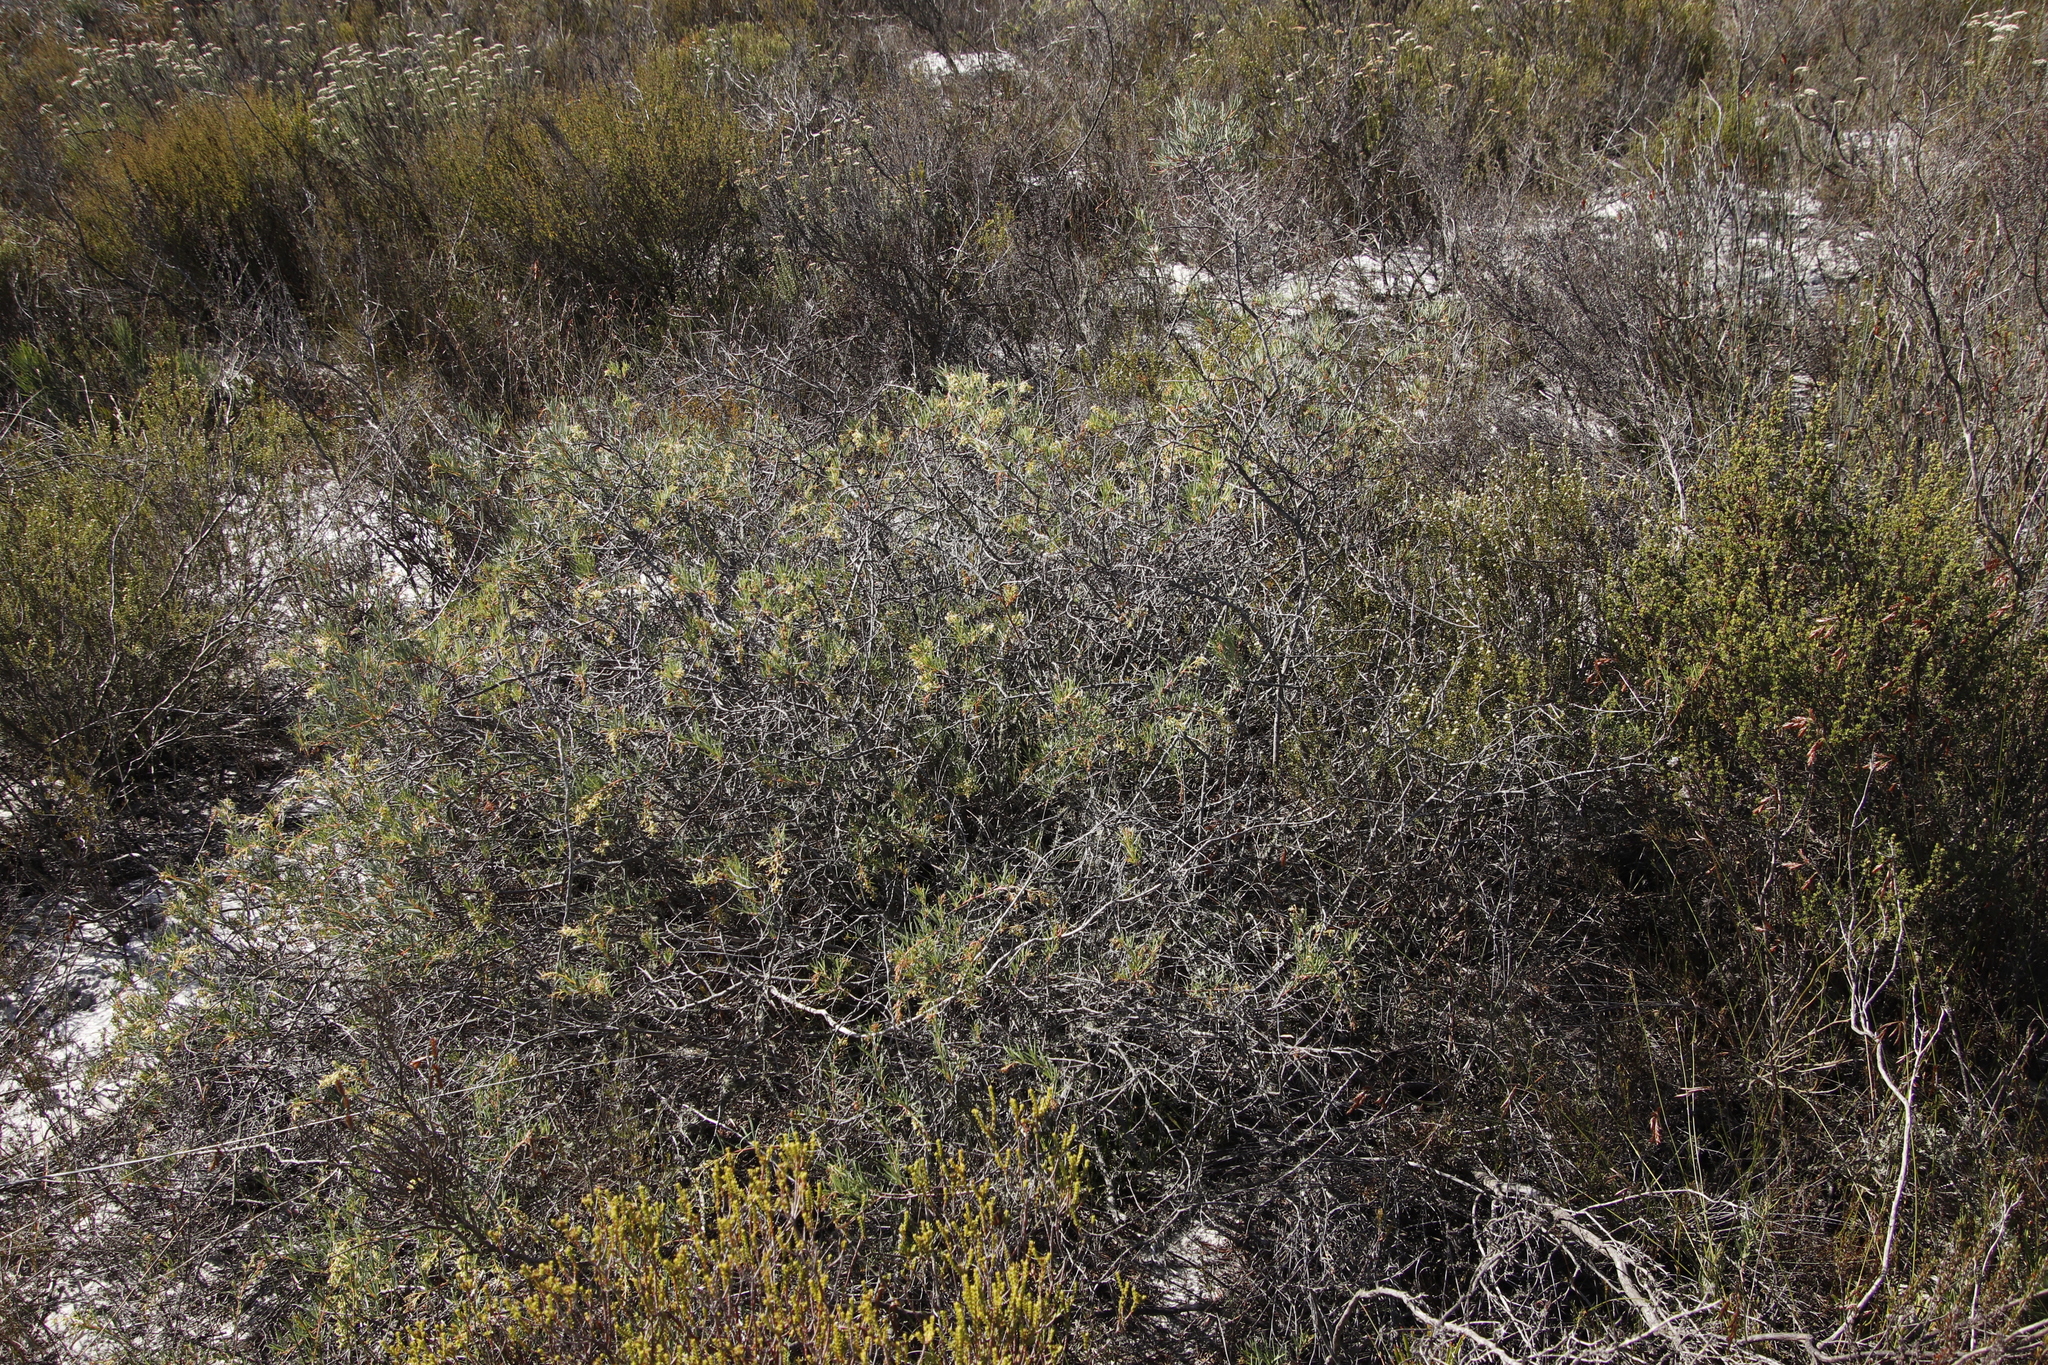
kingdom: Plantae
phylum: Tracheophyta
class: Magnoliopsida
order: Sapindales
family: Anacardiaceae
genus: Searsia
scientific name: Searsia rosmarinifolia
